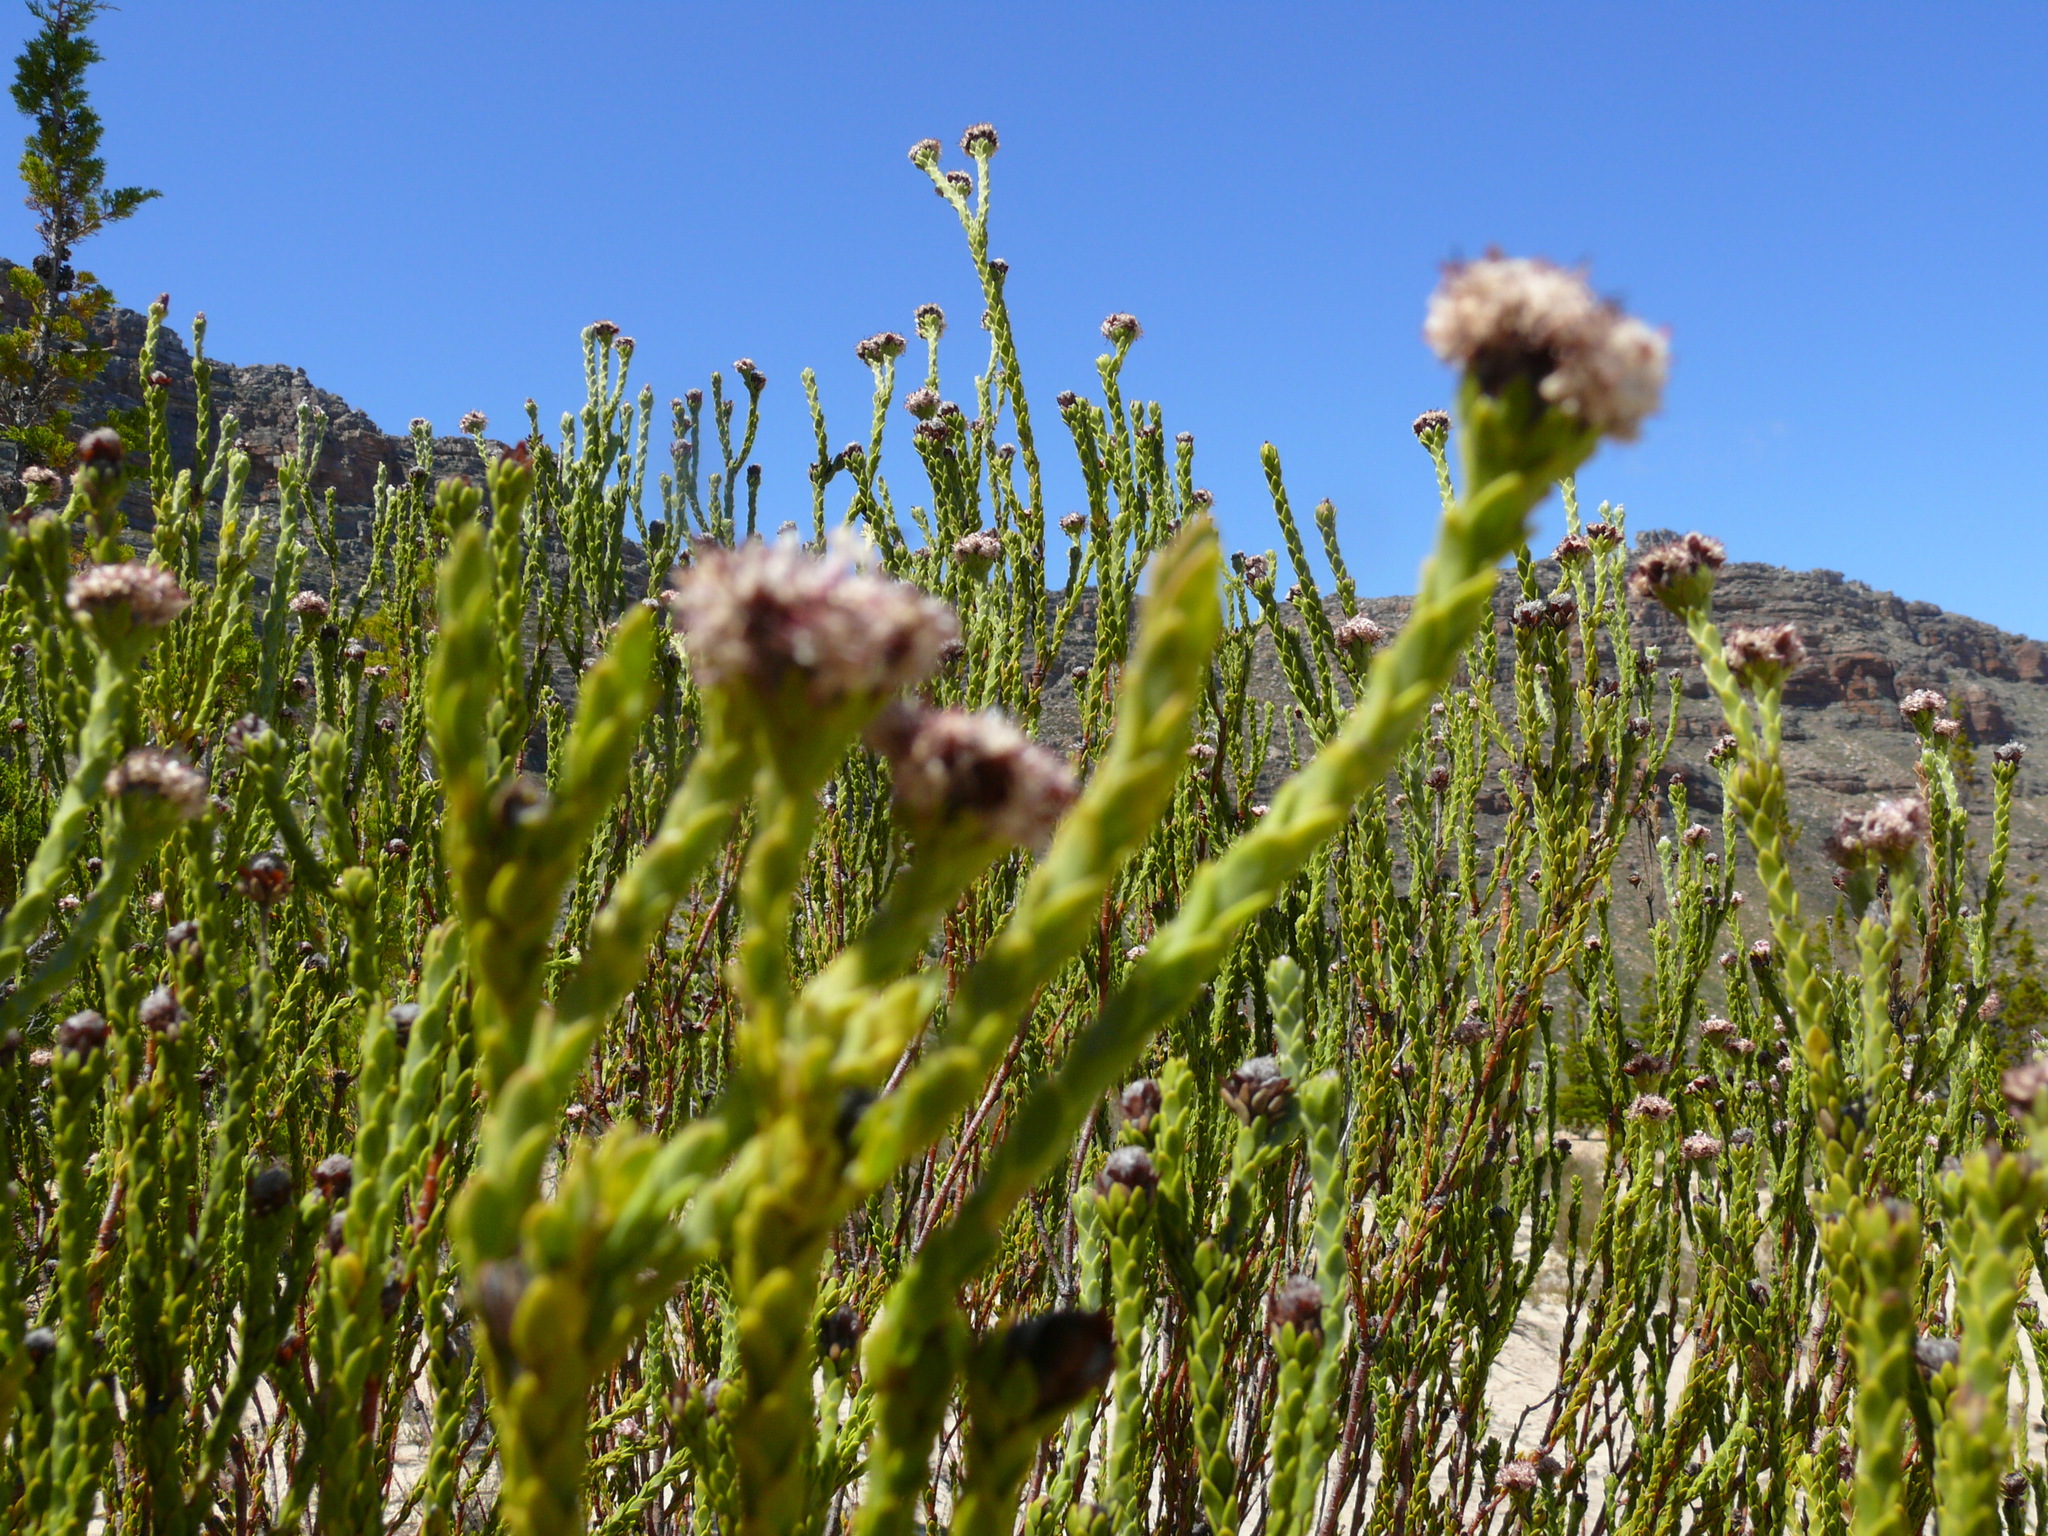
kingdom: Plantae
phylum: Tracheophyta
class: Magnoliopsida
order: Proteales
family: Proteaceae
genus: Leucadendron
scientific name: Leucadendron dubium
